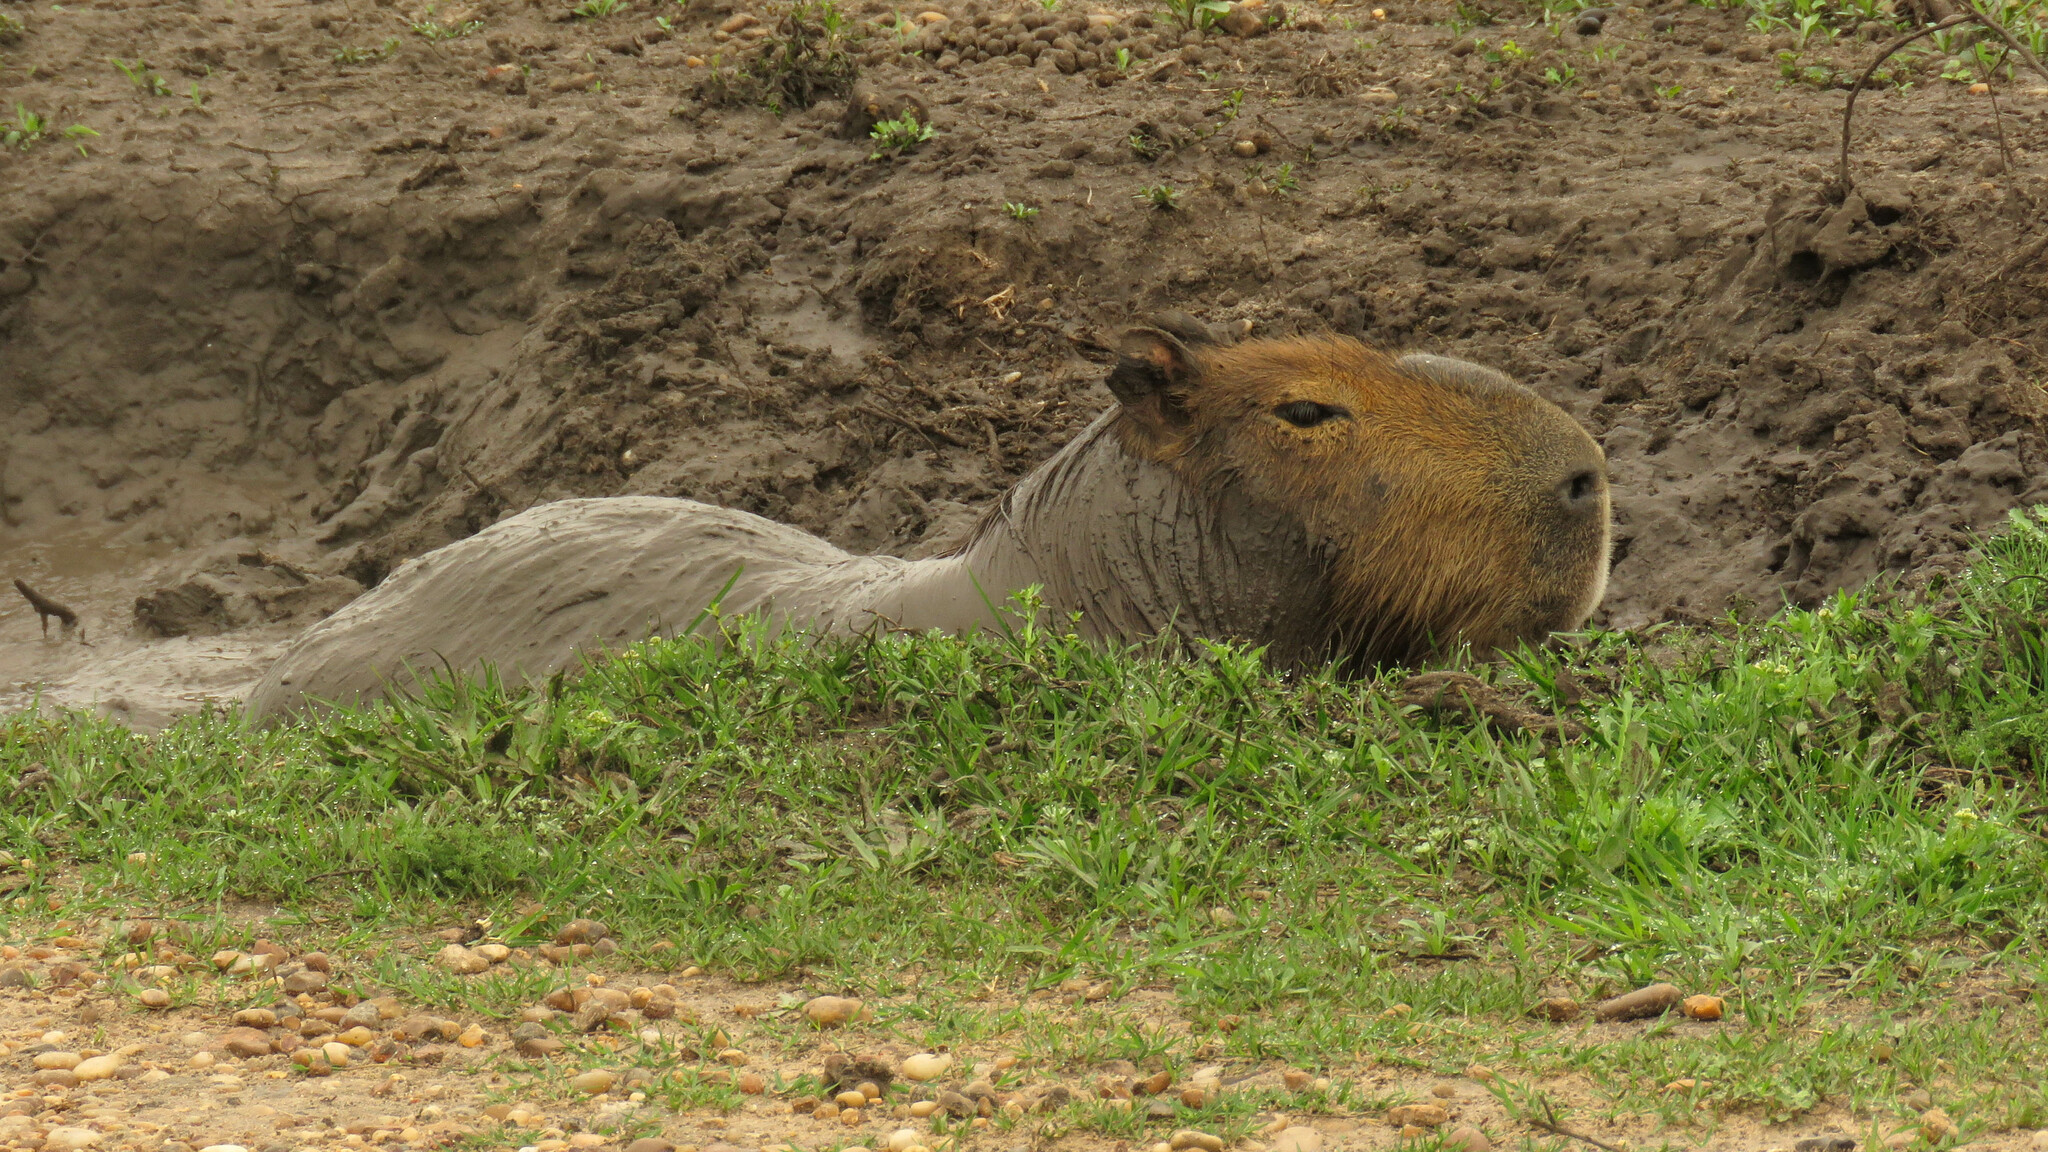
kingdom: Animalia
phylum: Chordata
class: Mammalia
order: Rodentia
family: Caviidae
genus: Hydrochoerus
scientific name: Hydrochoerus hydrochaeris
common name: Capybara
